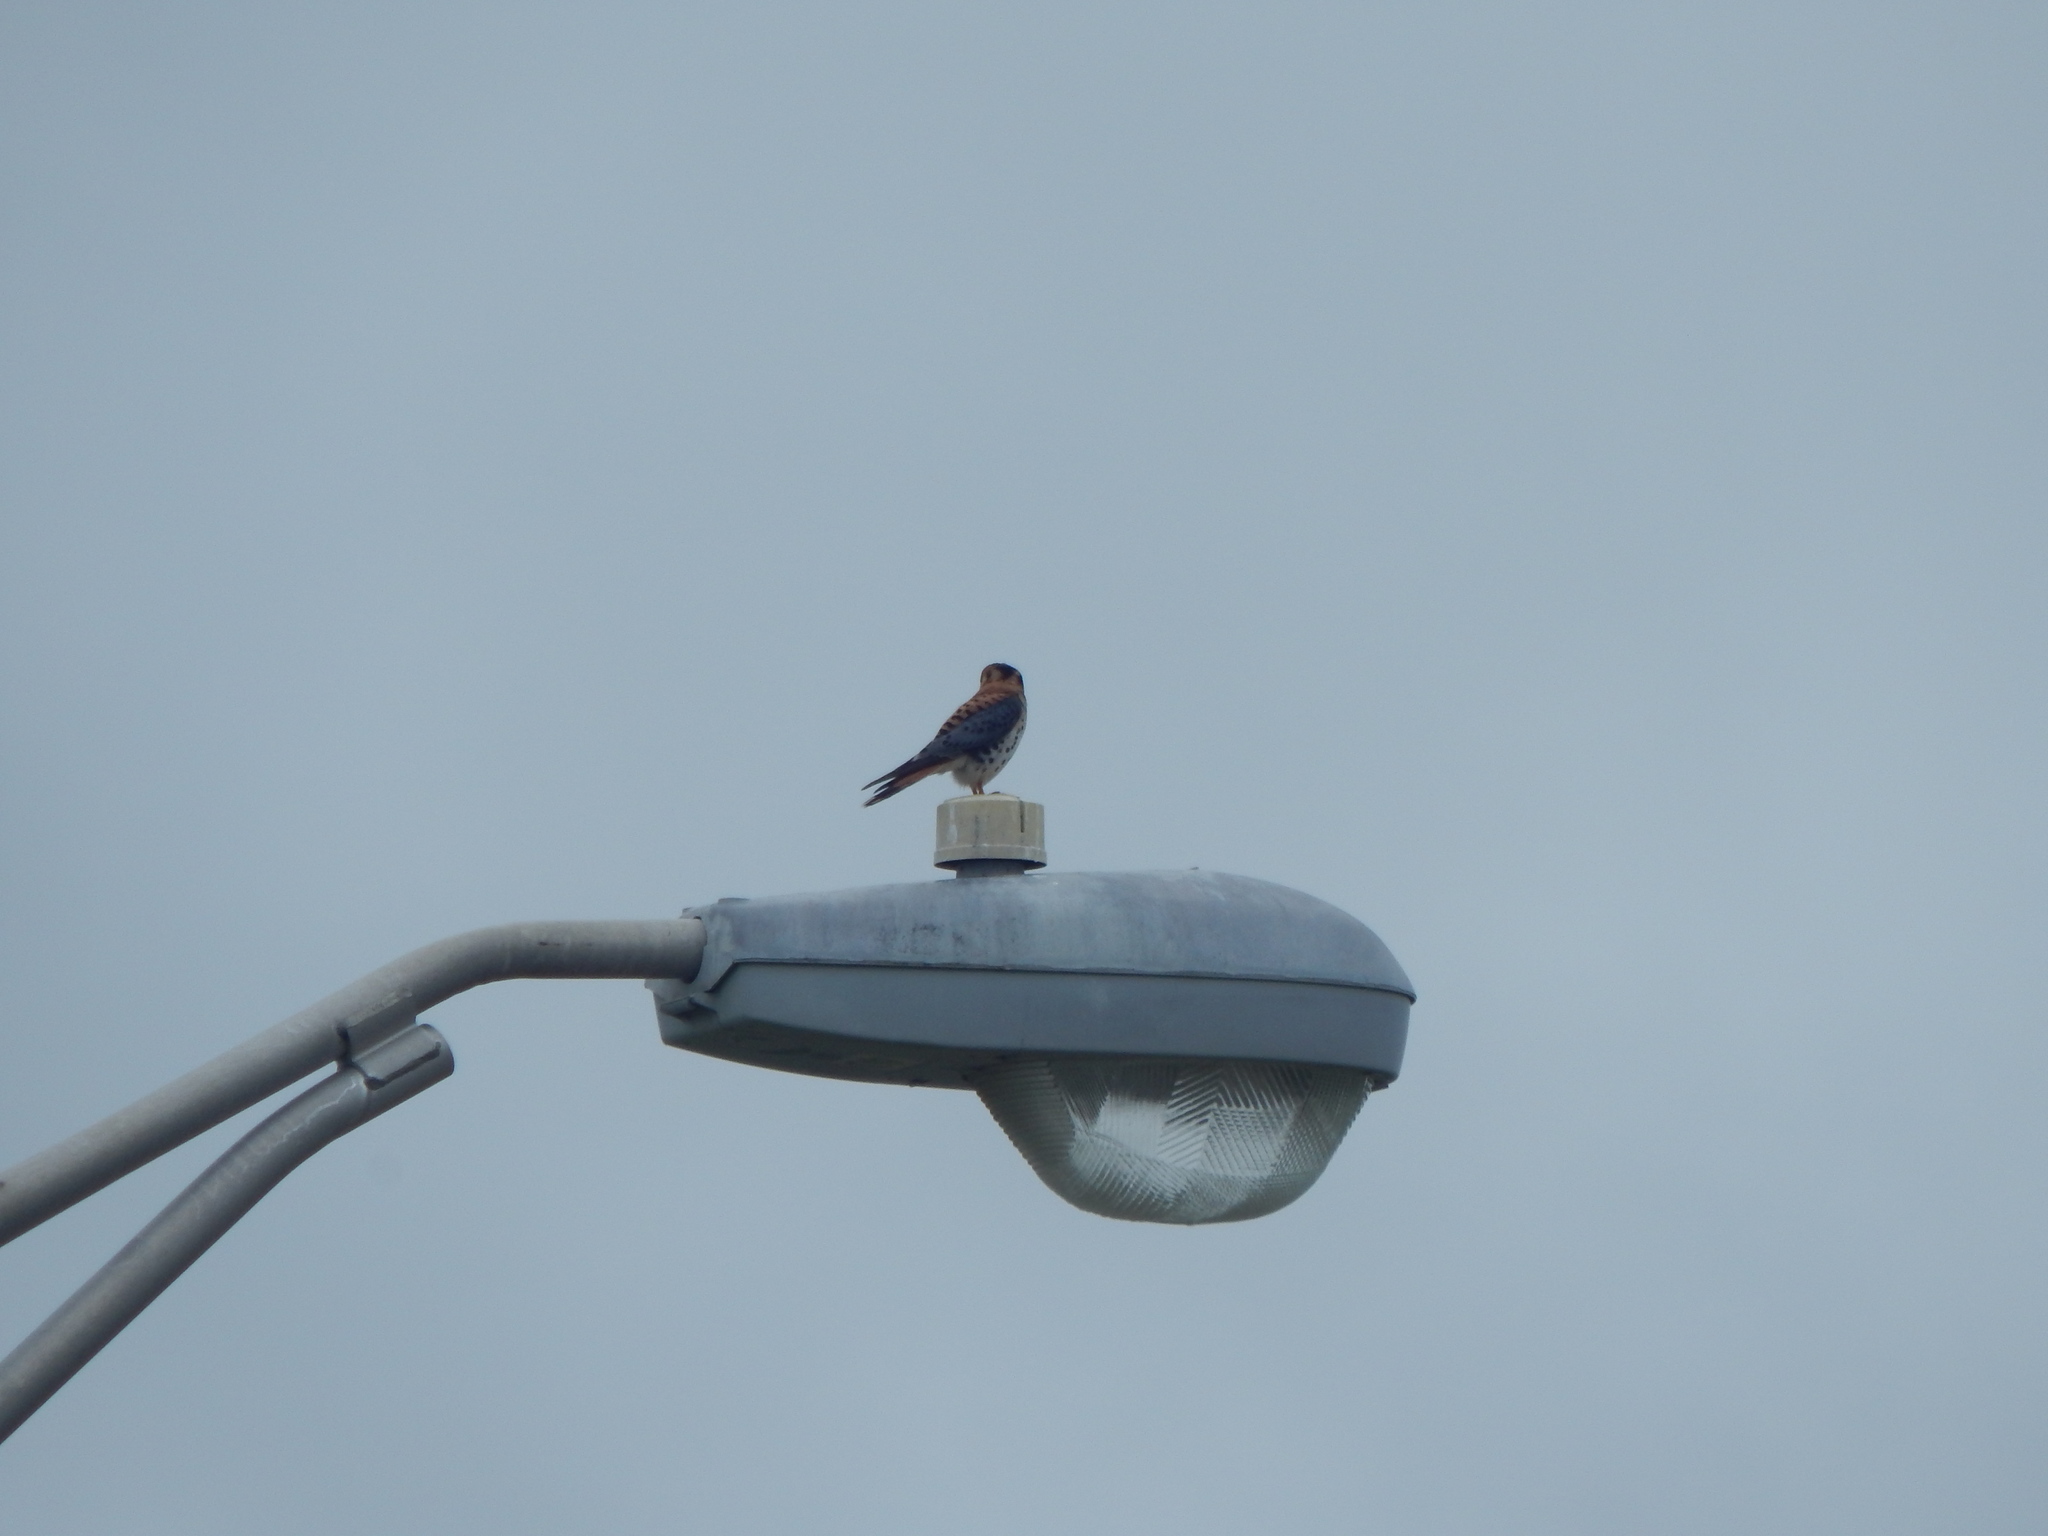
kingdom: Animalia
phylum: Chordata
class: Aves
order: Falconiformes
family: Falconidae
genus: Falco
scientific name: Falco sparverius
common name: American kestrel
